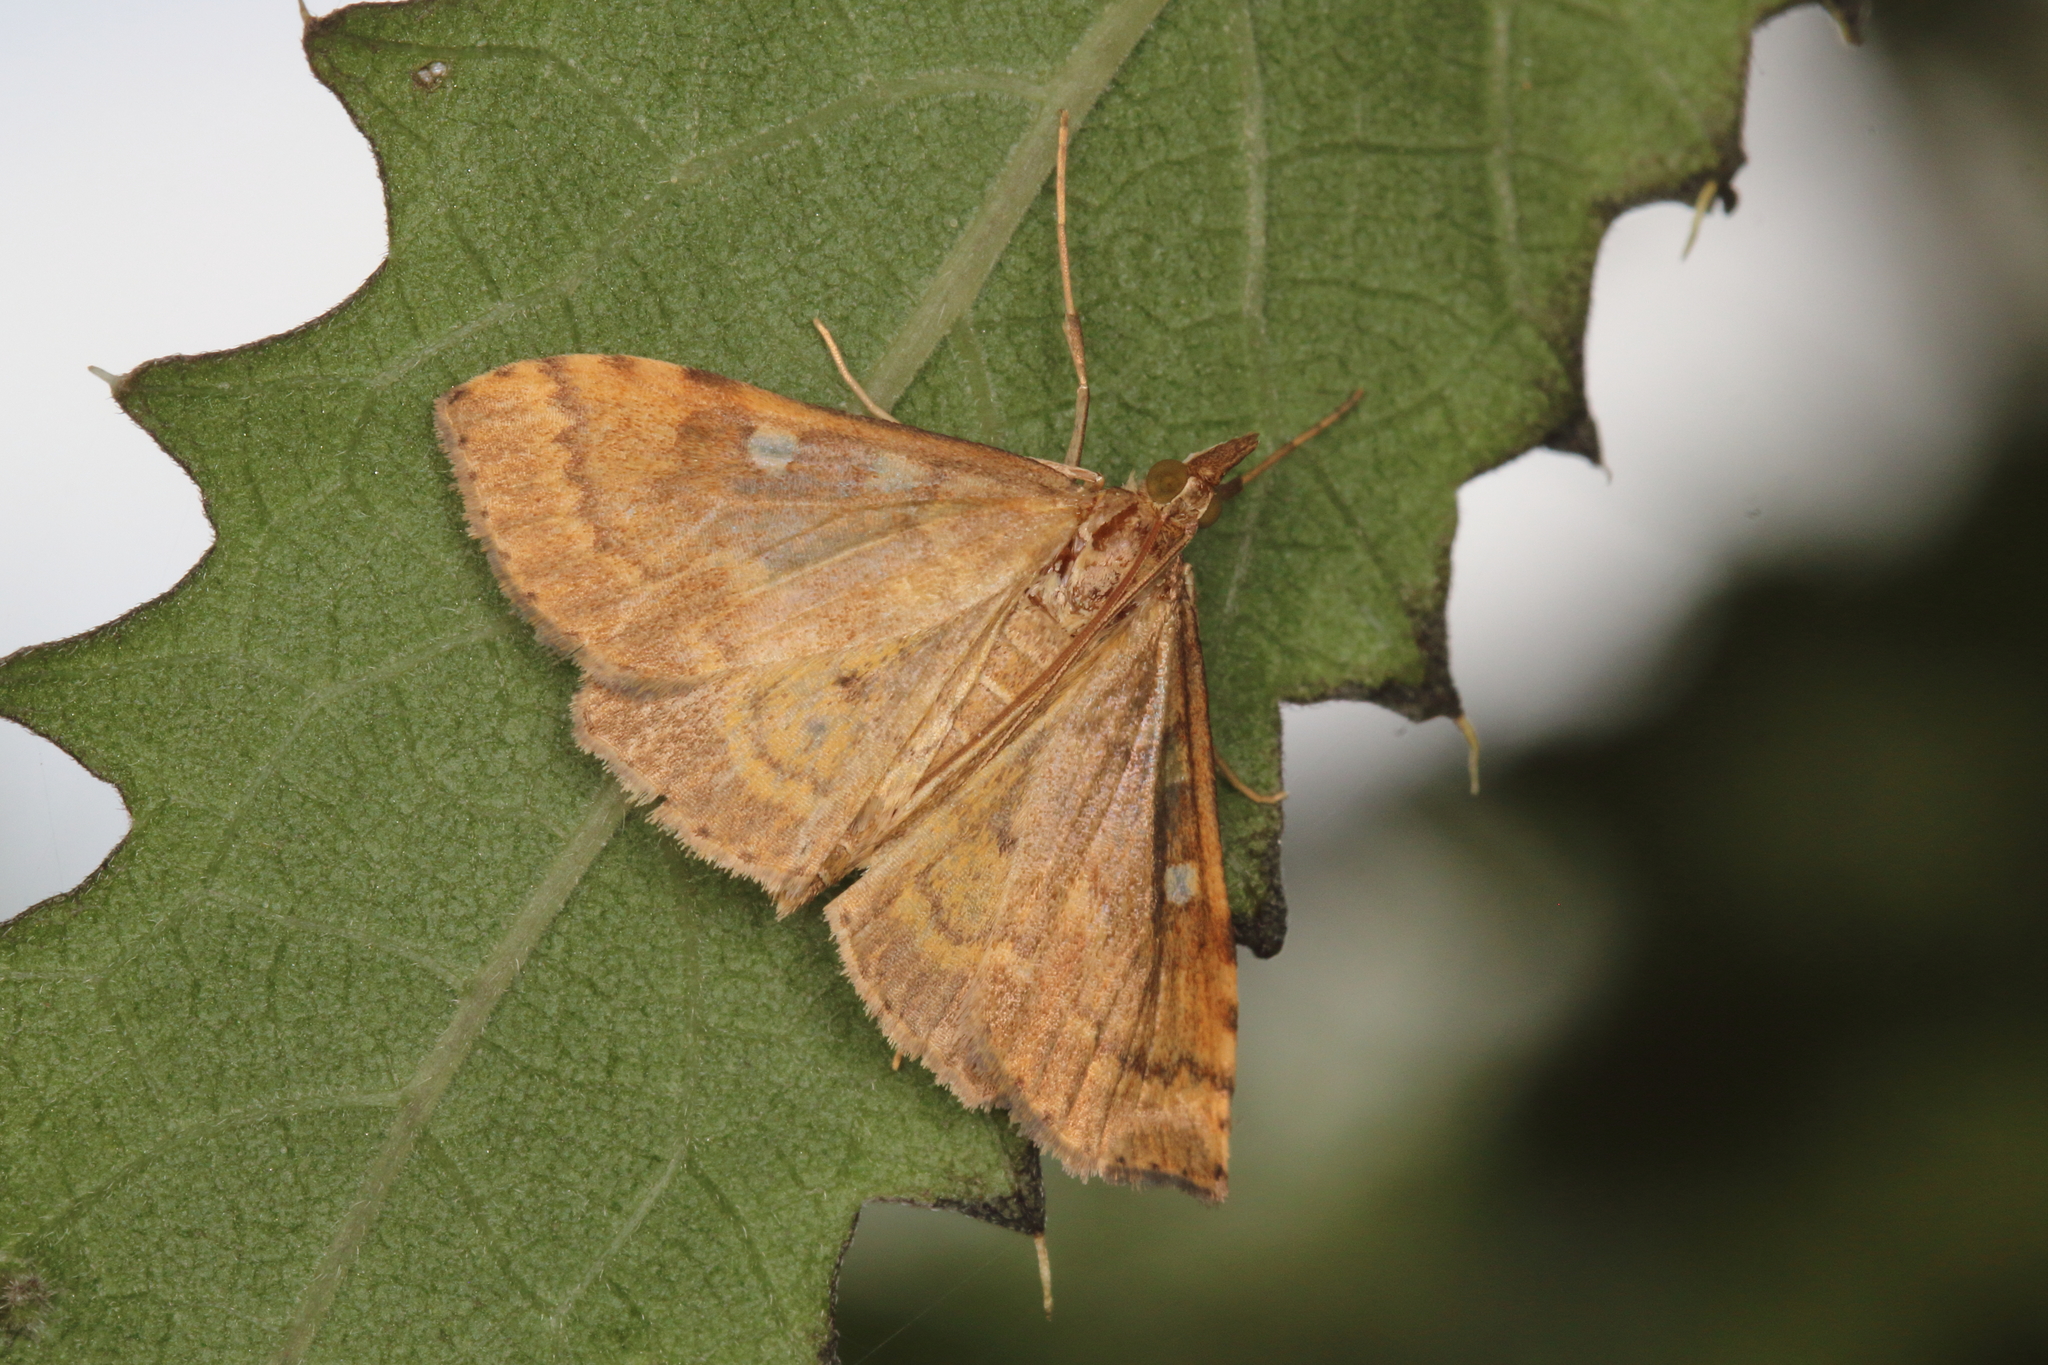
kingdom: Animalia
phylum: Arthropoda
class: Insecta
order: Lepidoptera
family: Crambidae
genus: Udea
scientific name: Udea Mnesictena marmarina
